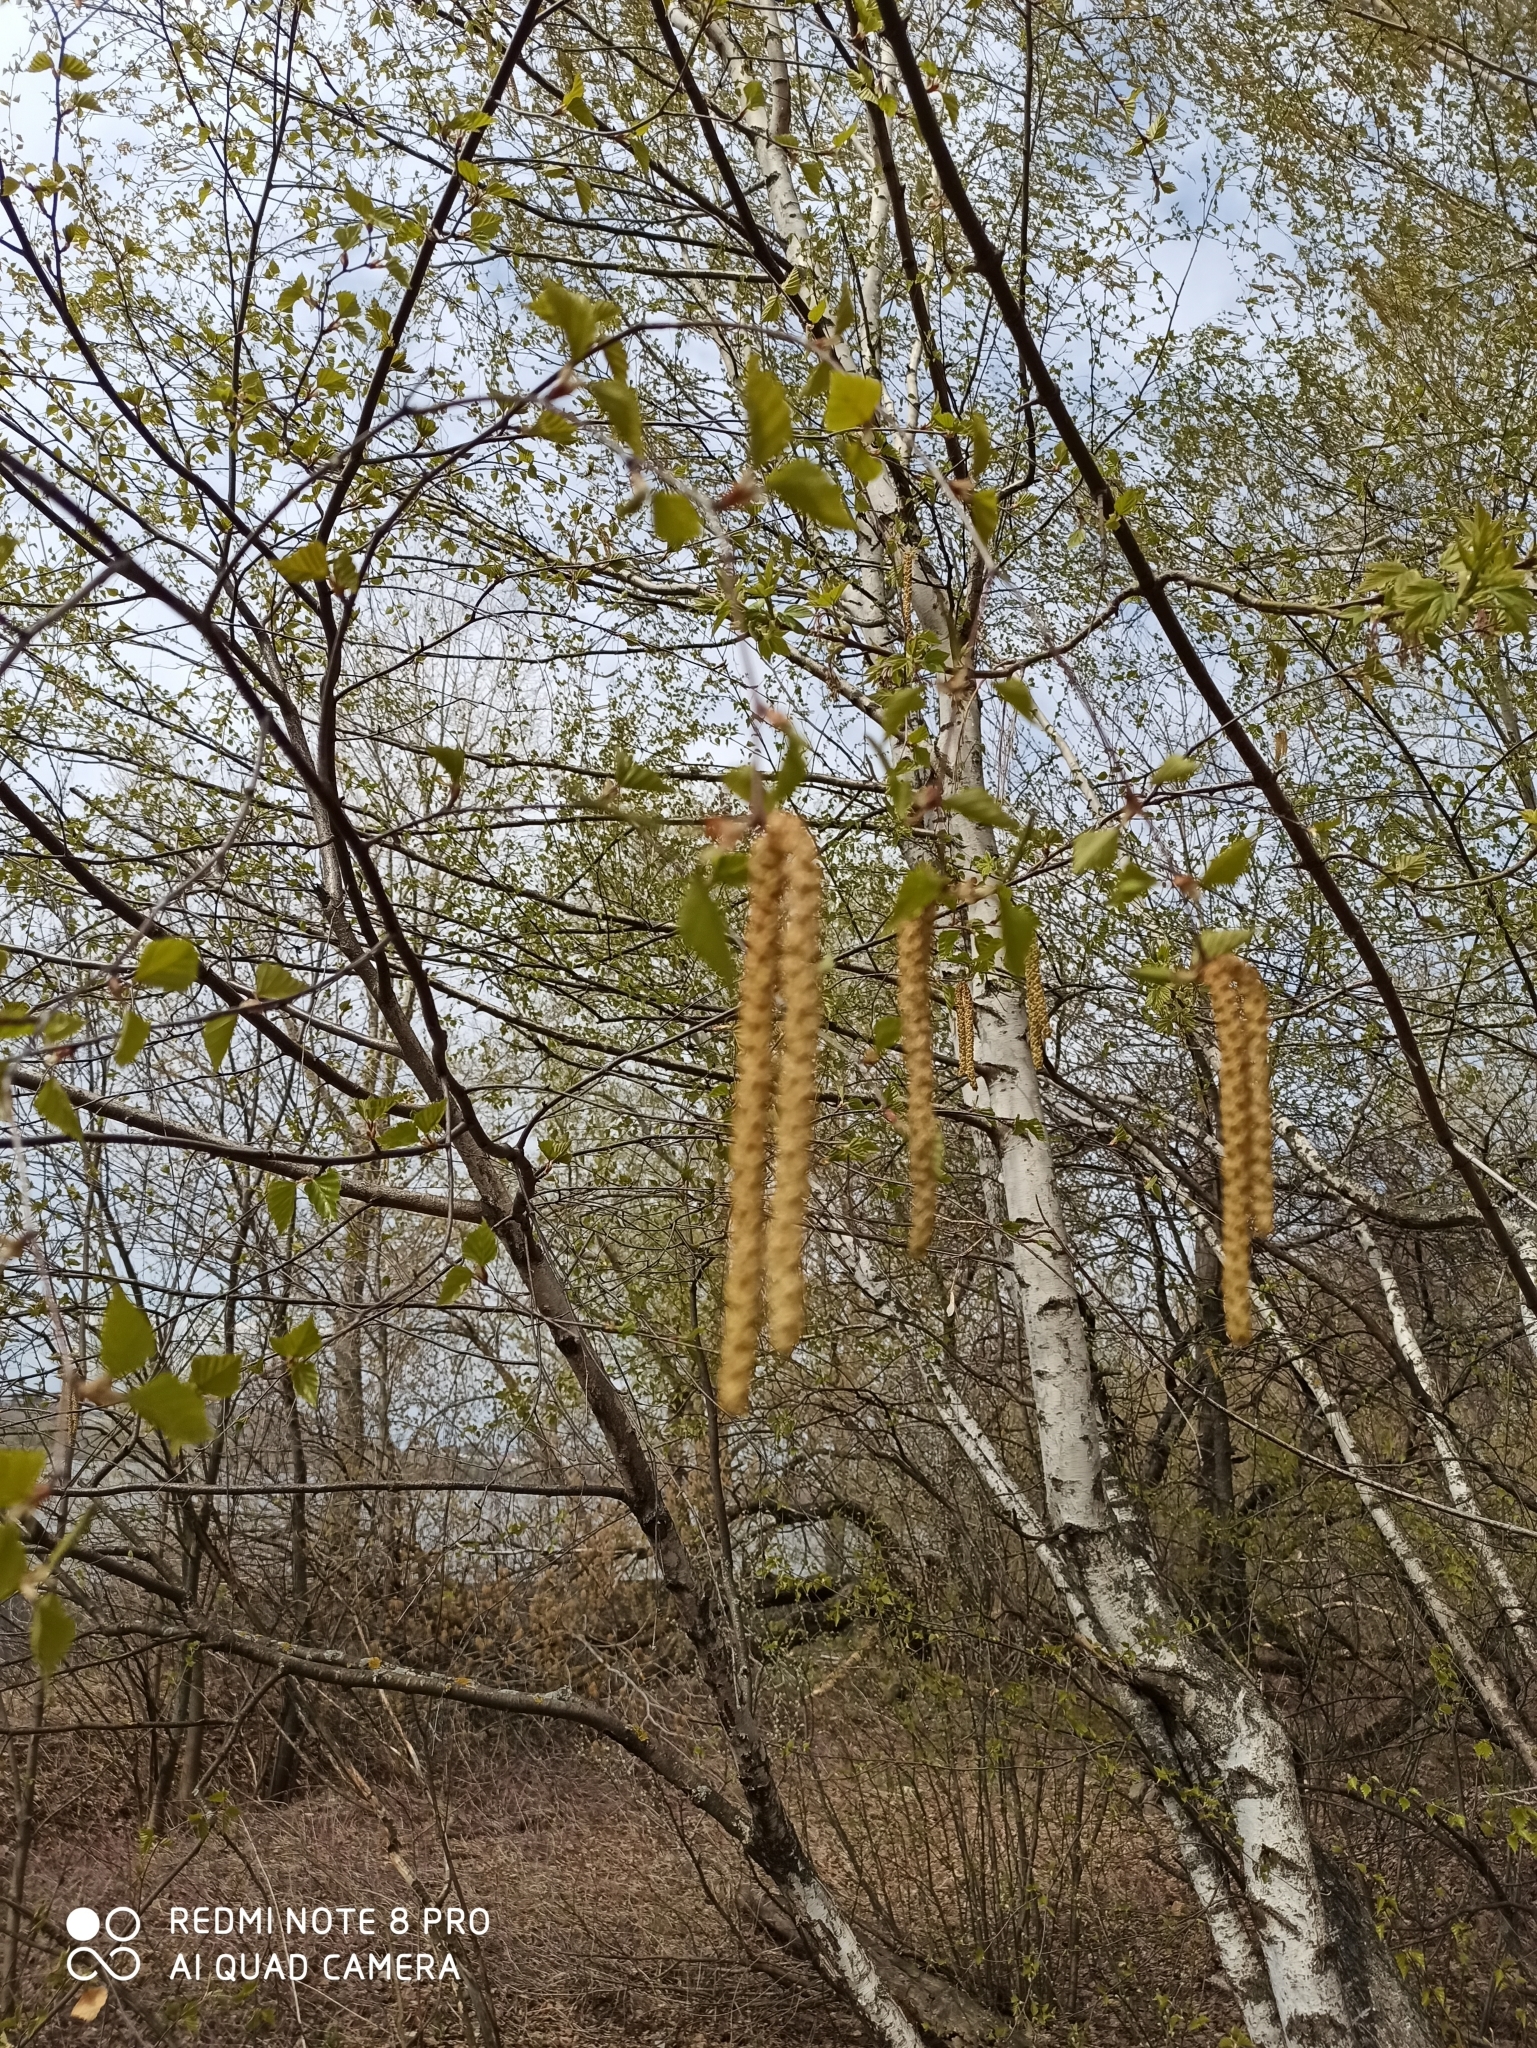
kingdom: Plantae
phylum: Tracheophyta
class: Magnoliopsida
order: Fagales
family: Betulaceae
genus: Betula
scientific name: Betula pendula
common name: Silver birch
